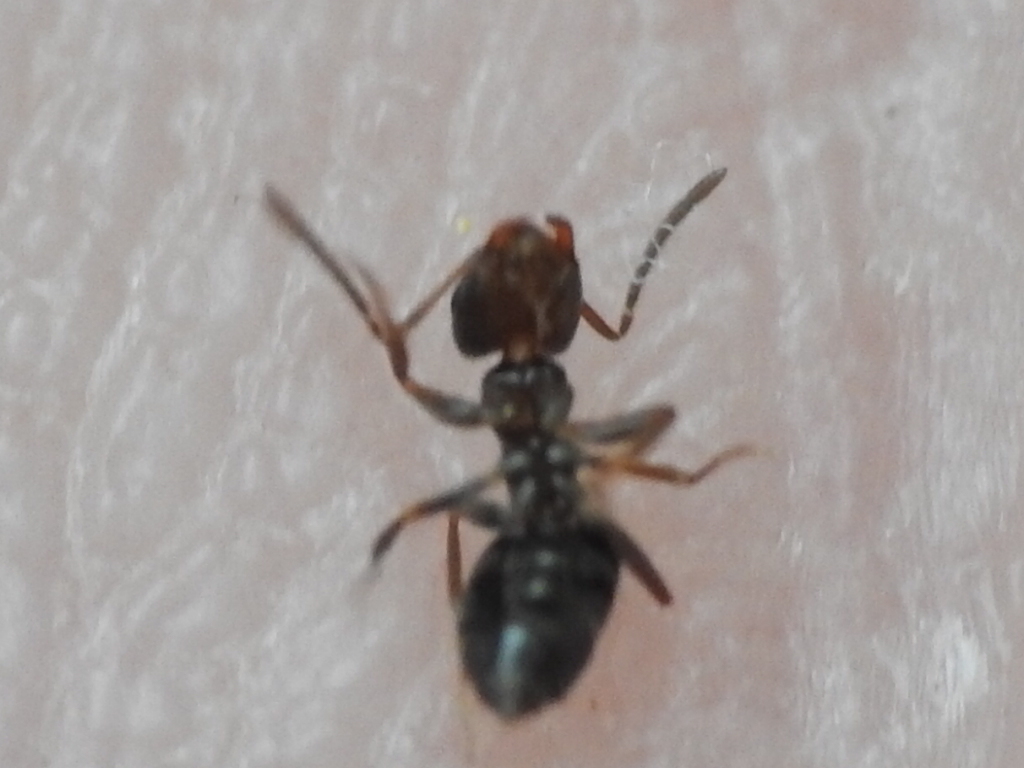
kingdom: Animalia
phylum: Arthropoda
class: Insecta
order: Hymenoptera
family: Formicidae
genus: Brachymyrmex
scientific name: Brachymyrmex patagonicus
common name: Dark rover ant
